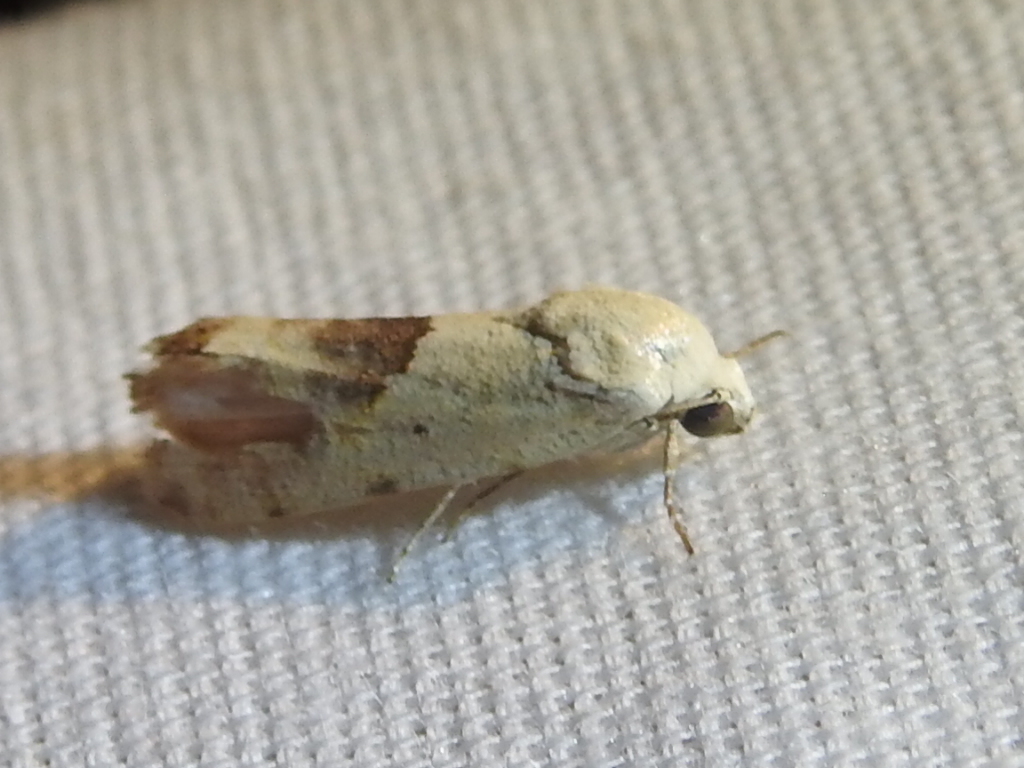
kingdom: Animalia
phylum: Arthropoda
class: Insecta
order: Lepidoptera
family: Noctuidae
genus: Acontia
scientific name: Acontia libedis
